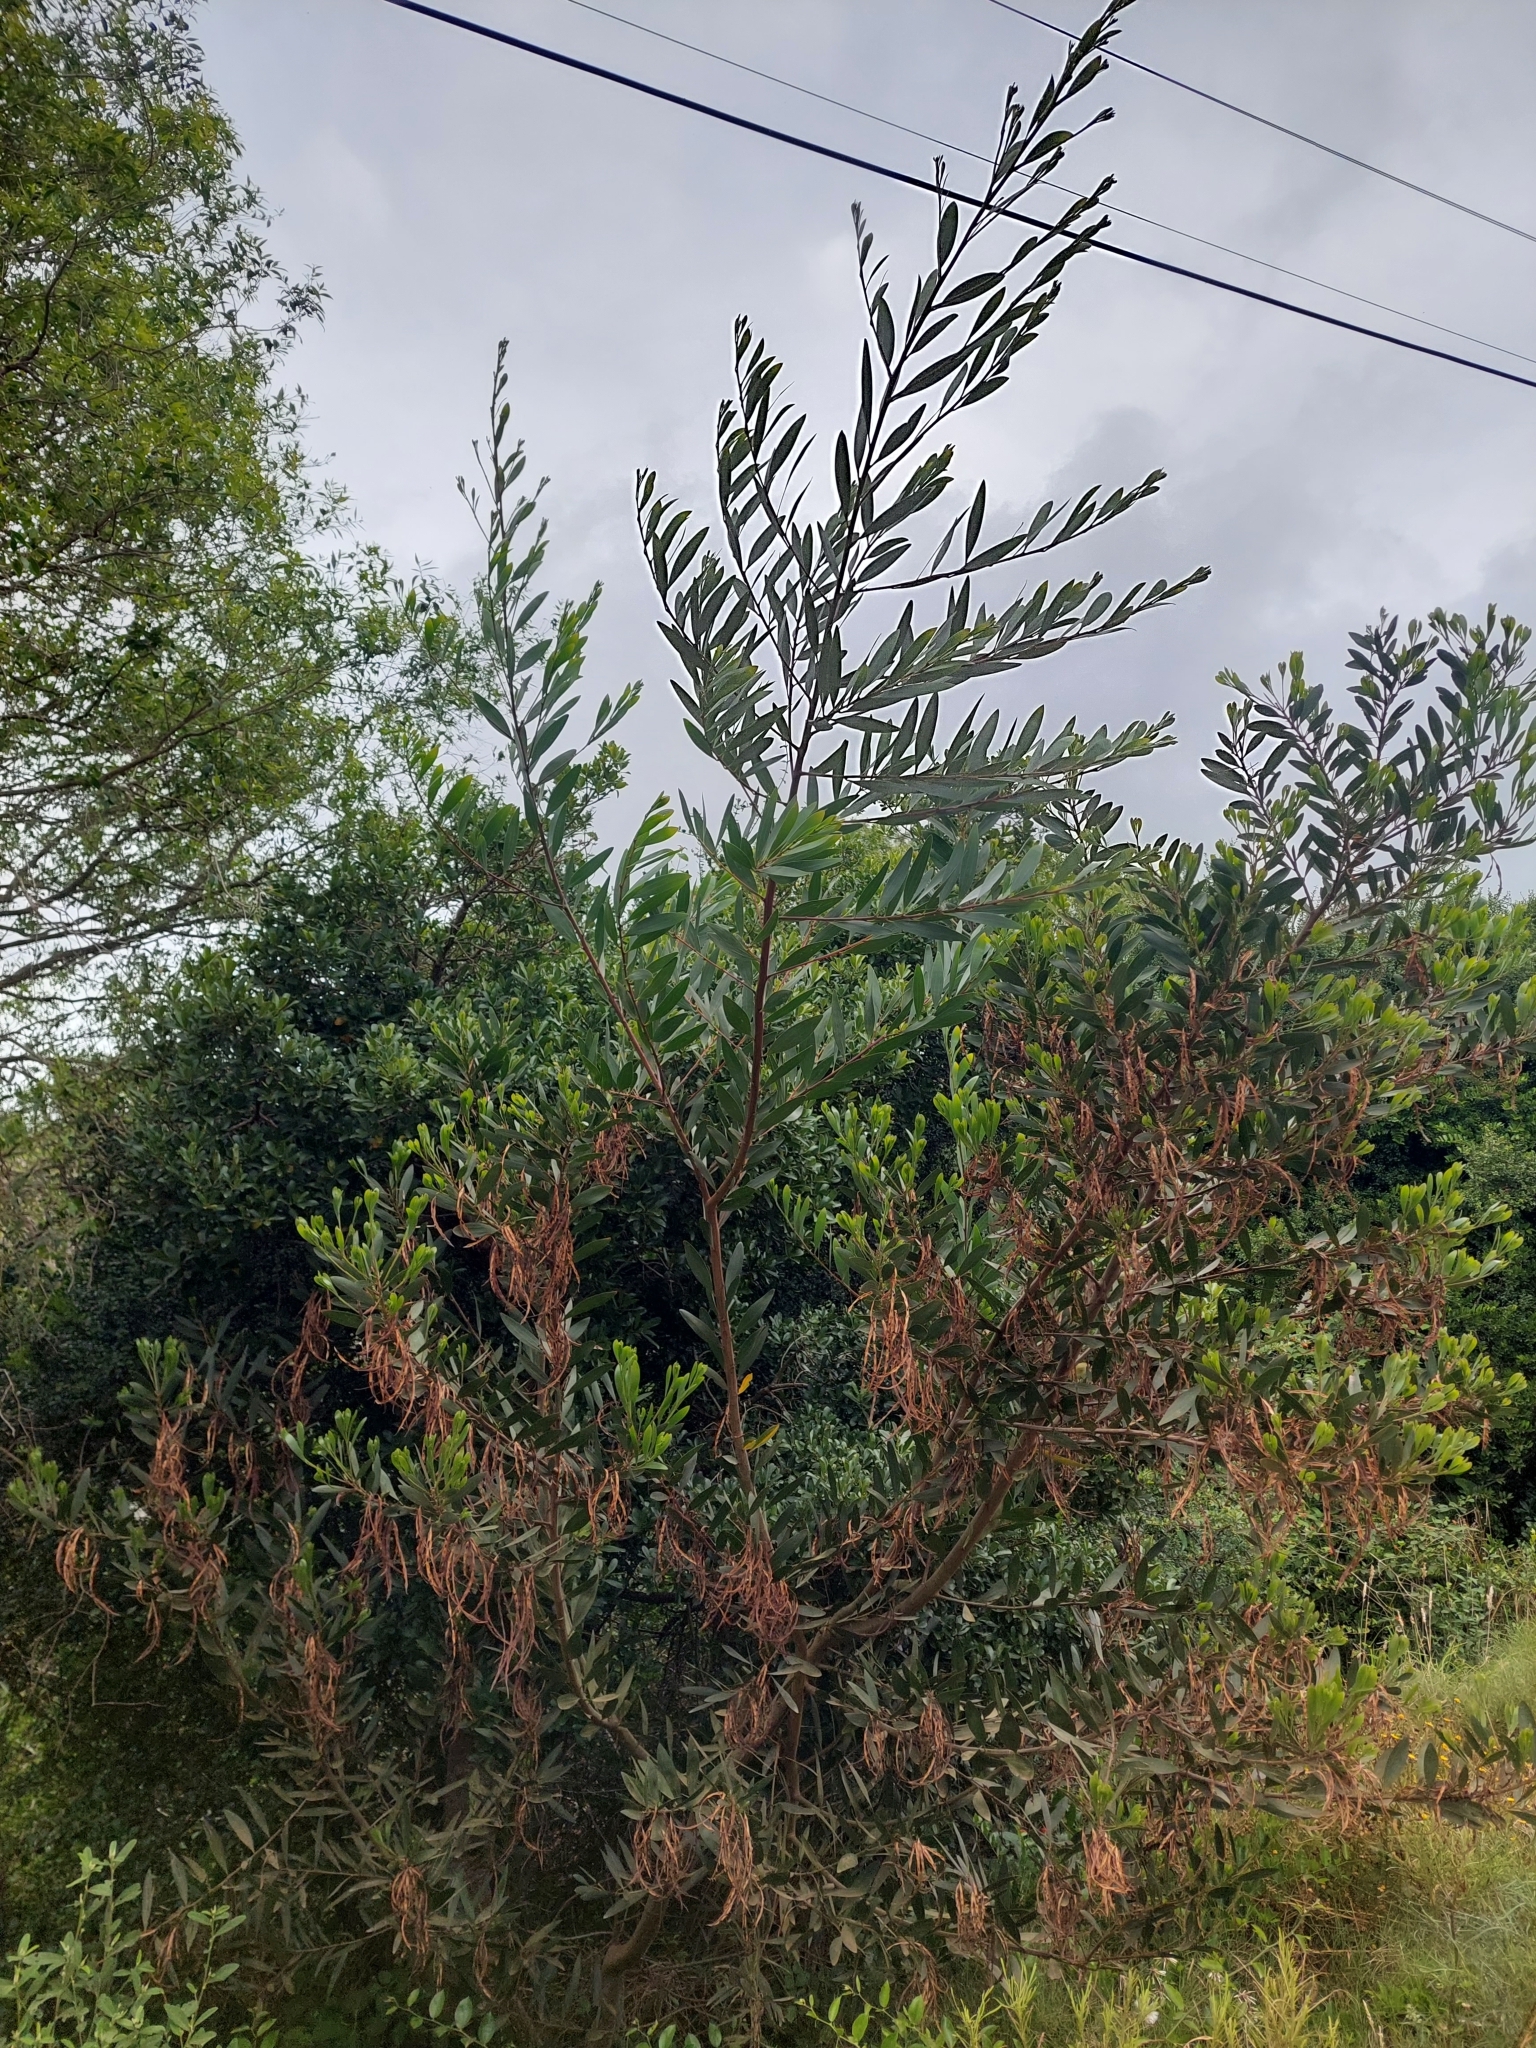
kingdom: Plantae
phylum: Tracheophyta
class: Magnoliopsida
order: Fabales
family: Fabaceae
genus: Acacia
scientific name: Acacia longifolia
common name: Sydney golden wattle
